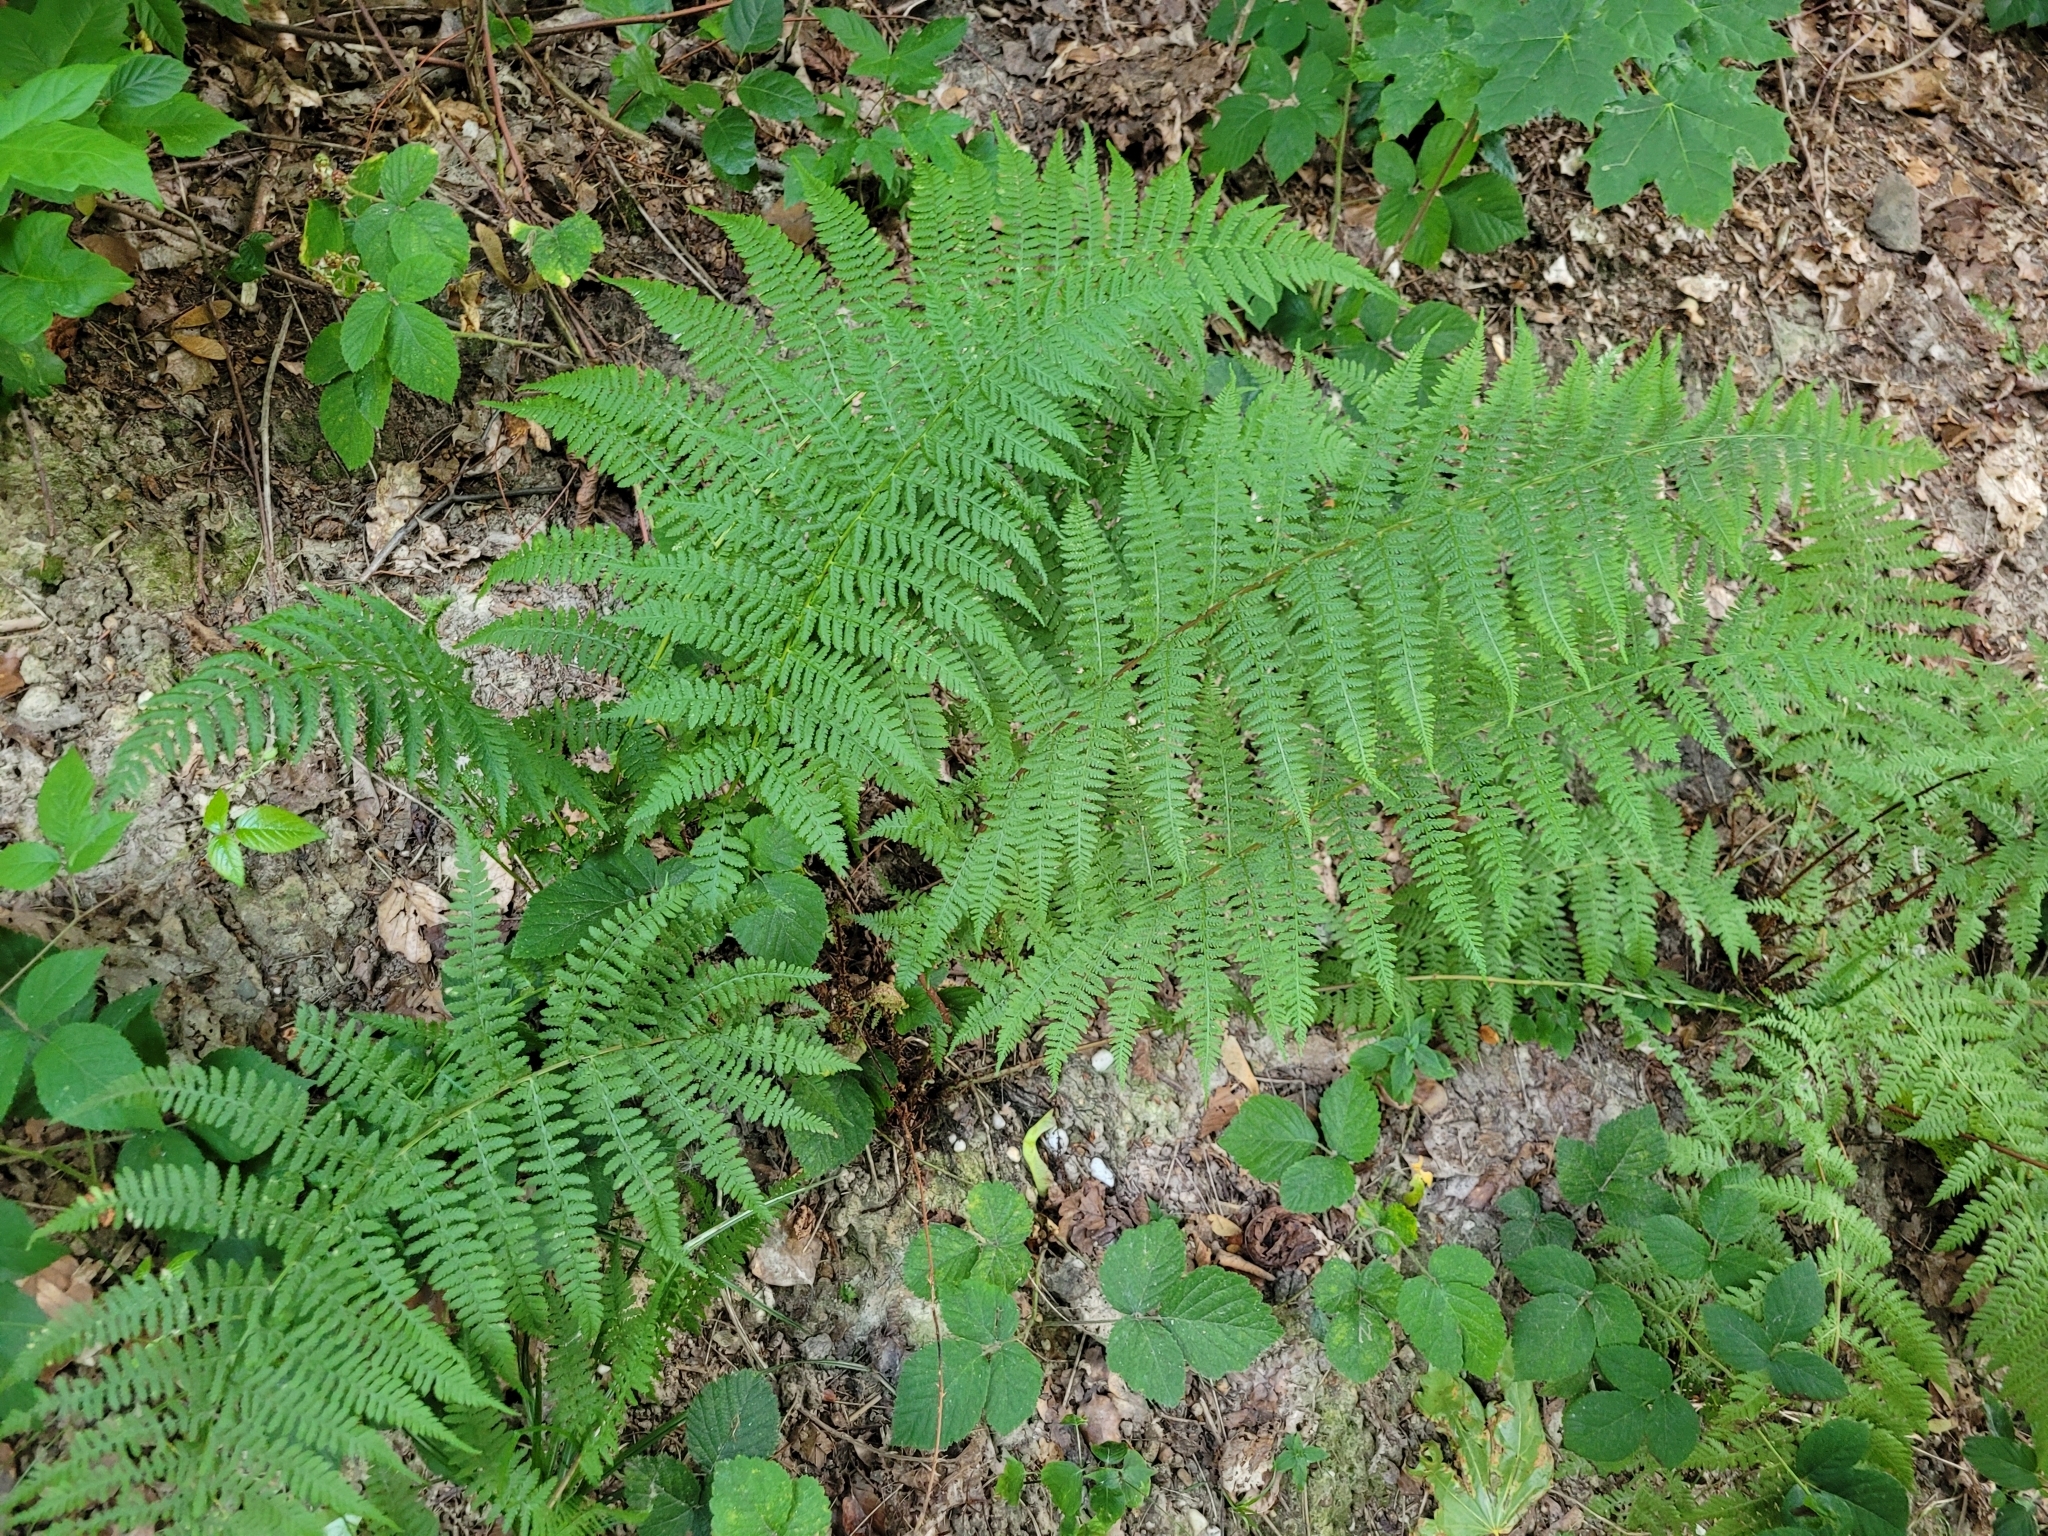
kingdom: Plantae
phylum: Tracheophyta
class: Polypodiopsida
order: Polypodiales
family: Athyriaceae
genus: Athyrium
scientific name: Athyrium filix-femina
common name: Lady fern
